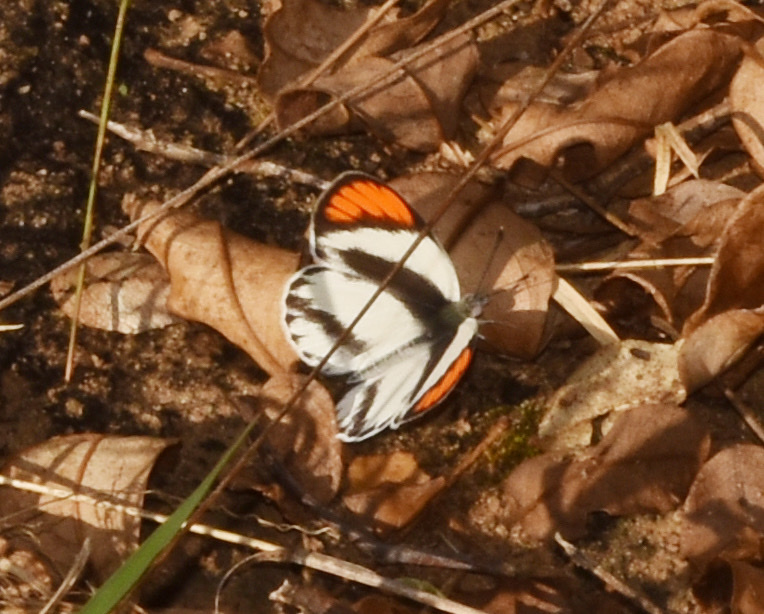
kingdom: Animalia
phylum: Arthropoda
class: Insecta
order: Lepidoptera
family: Pieridae
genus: Colotis
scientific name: Colotis euippe
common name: Round-winged orange tip
